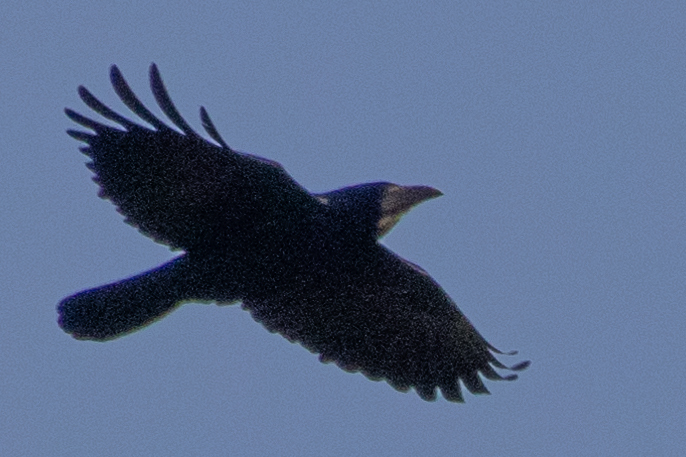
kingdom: Animalia
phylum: Chordata
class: Aves
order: Passeriformes
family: Corvidae
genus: Corvus
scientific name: Corvus frugilegus
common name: Rook
